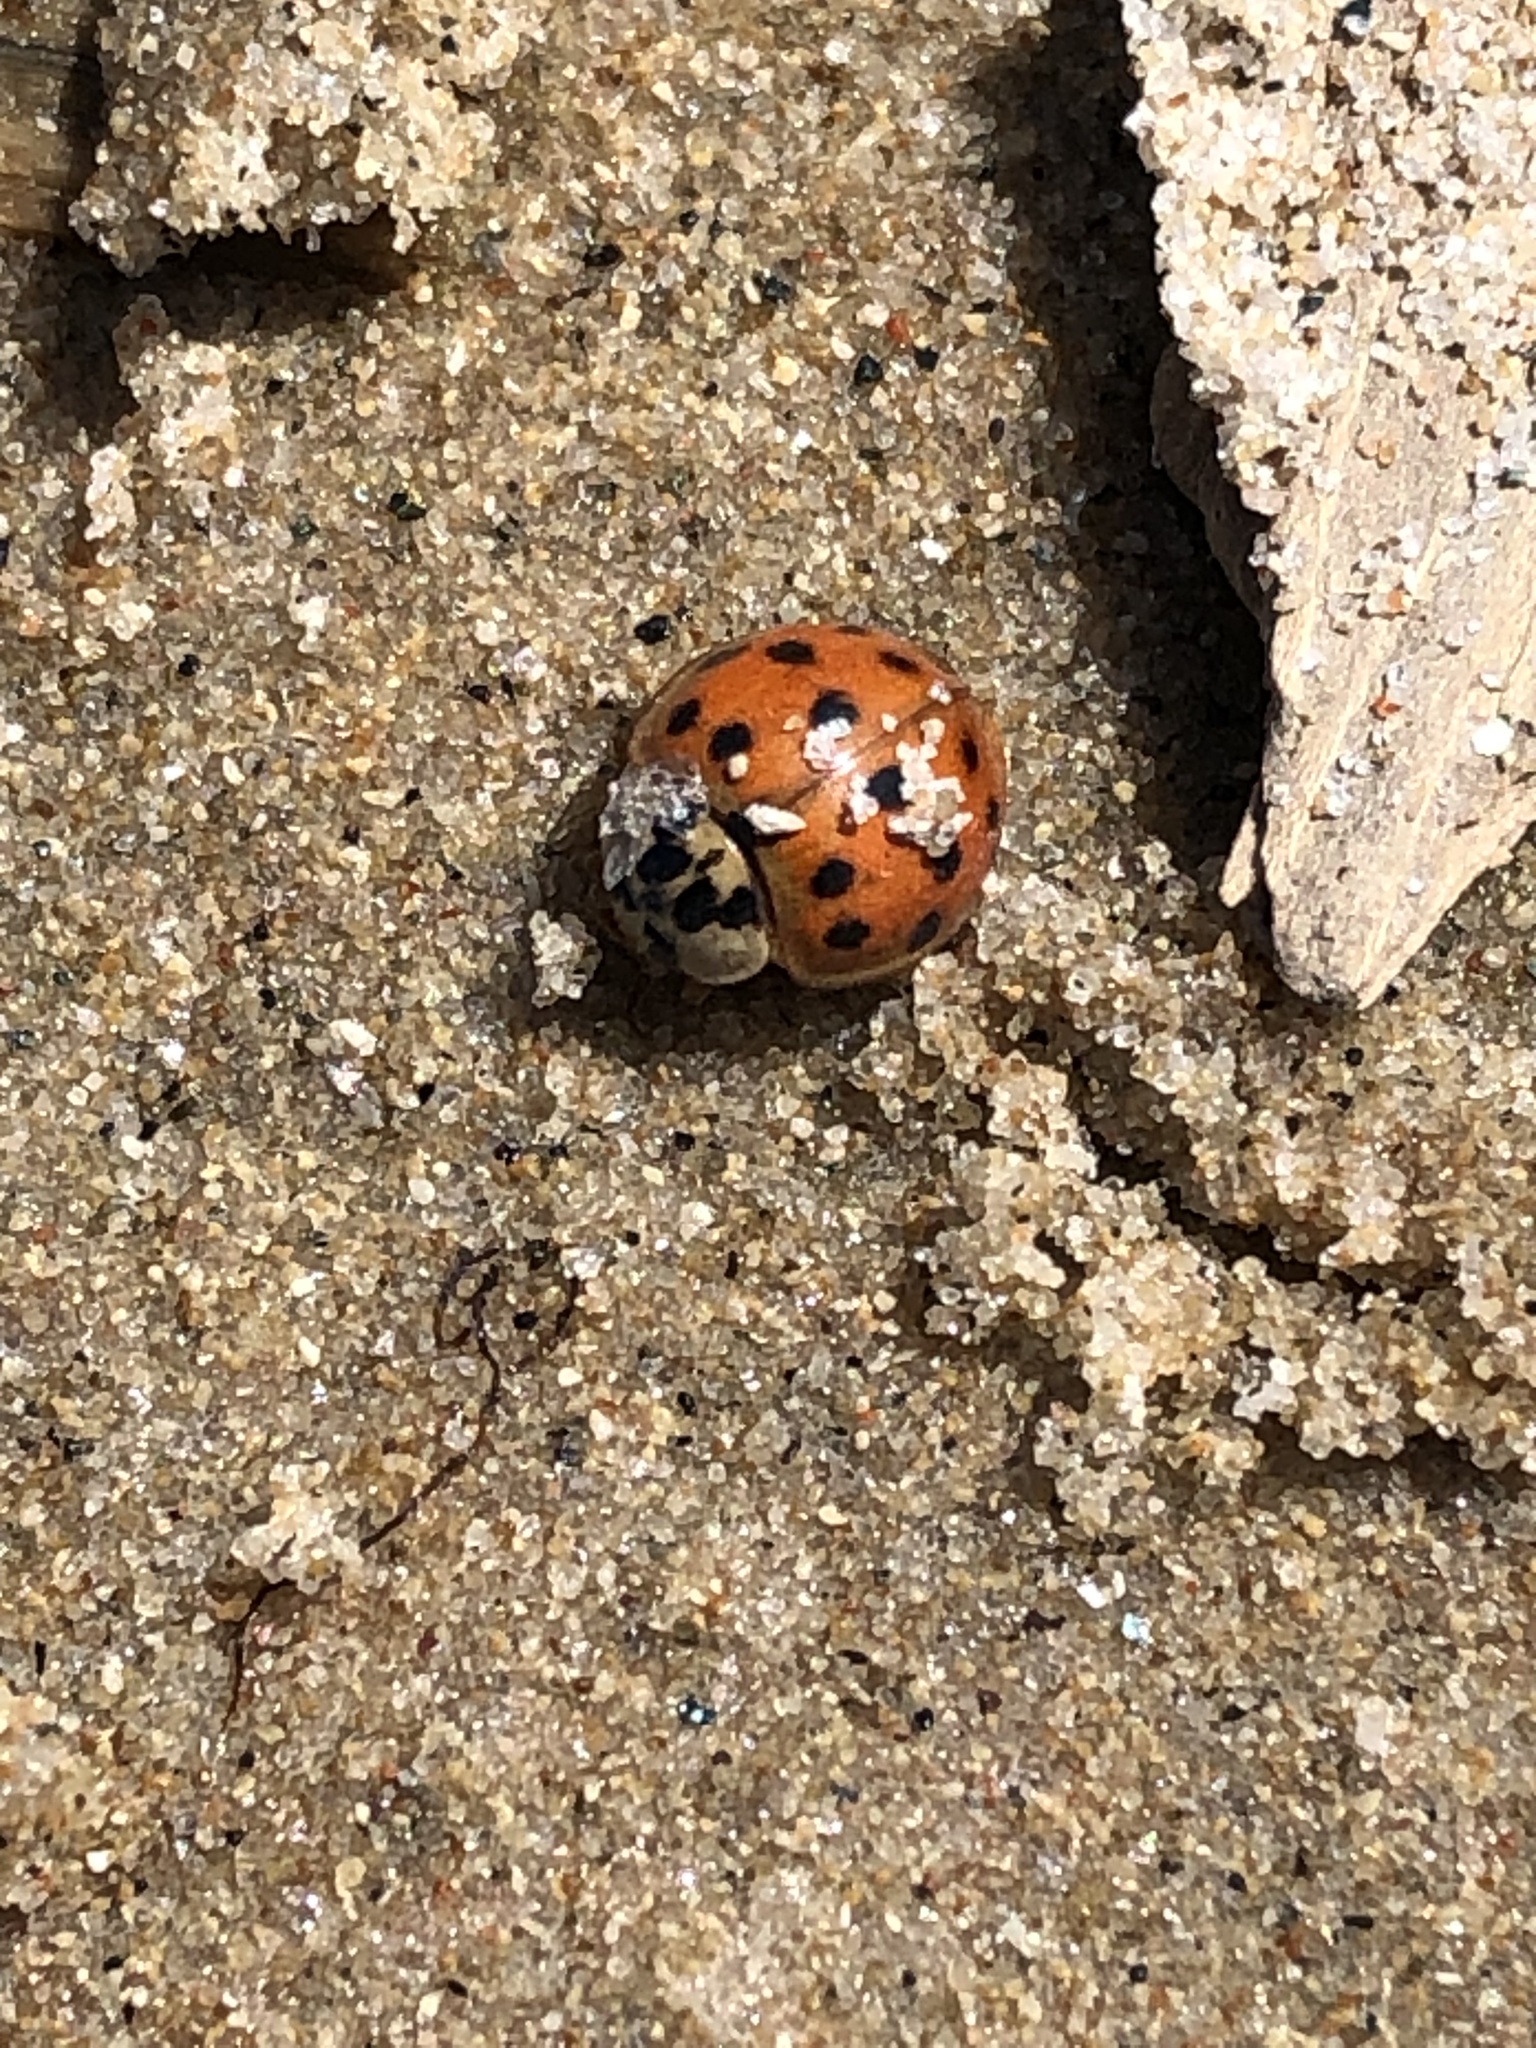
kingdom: Animalia
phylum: Arthropoda
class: Insecta
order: Coleoptera
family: Coccinellidae
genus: Harmonia
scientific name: Harmonia axyridis
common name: Harlequin ladybird
